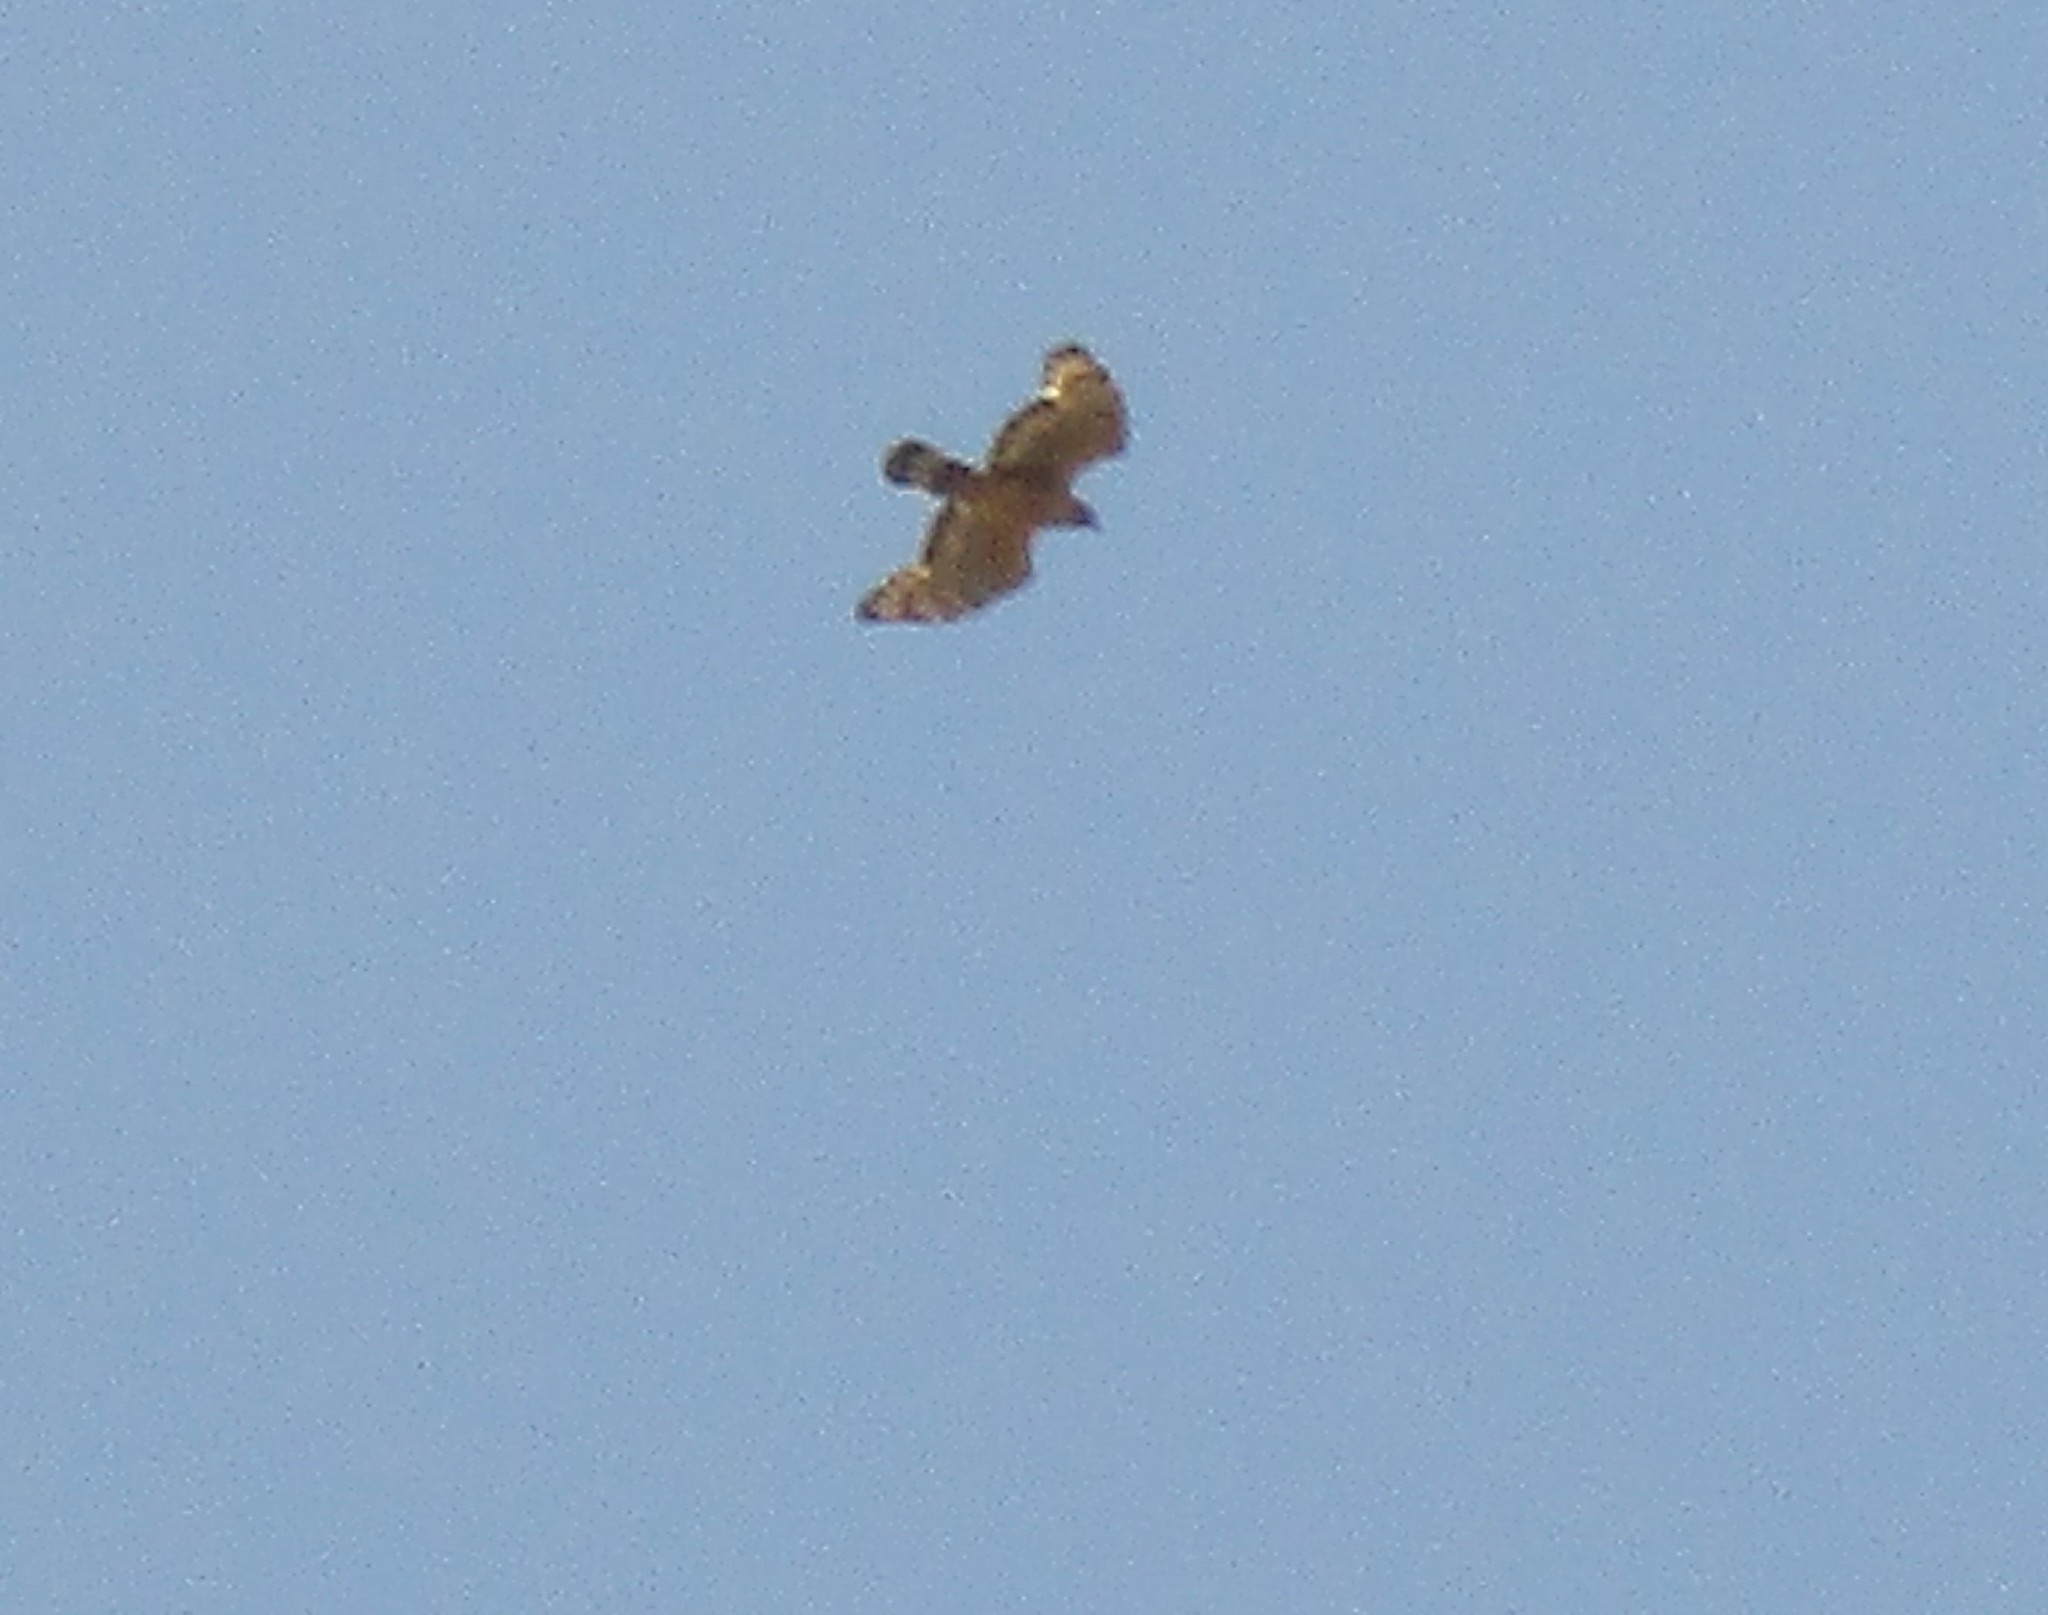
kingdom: Animalia
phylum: Chordata
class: Aves
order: Accipitriformes
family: Accipitridae
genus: Pernis
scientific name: Pernis ptilorhynchus
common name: Crested honey buzzard
